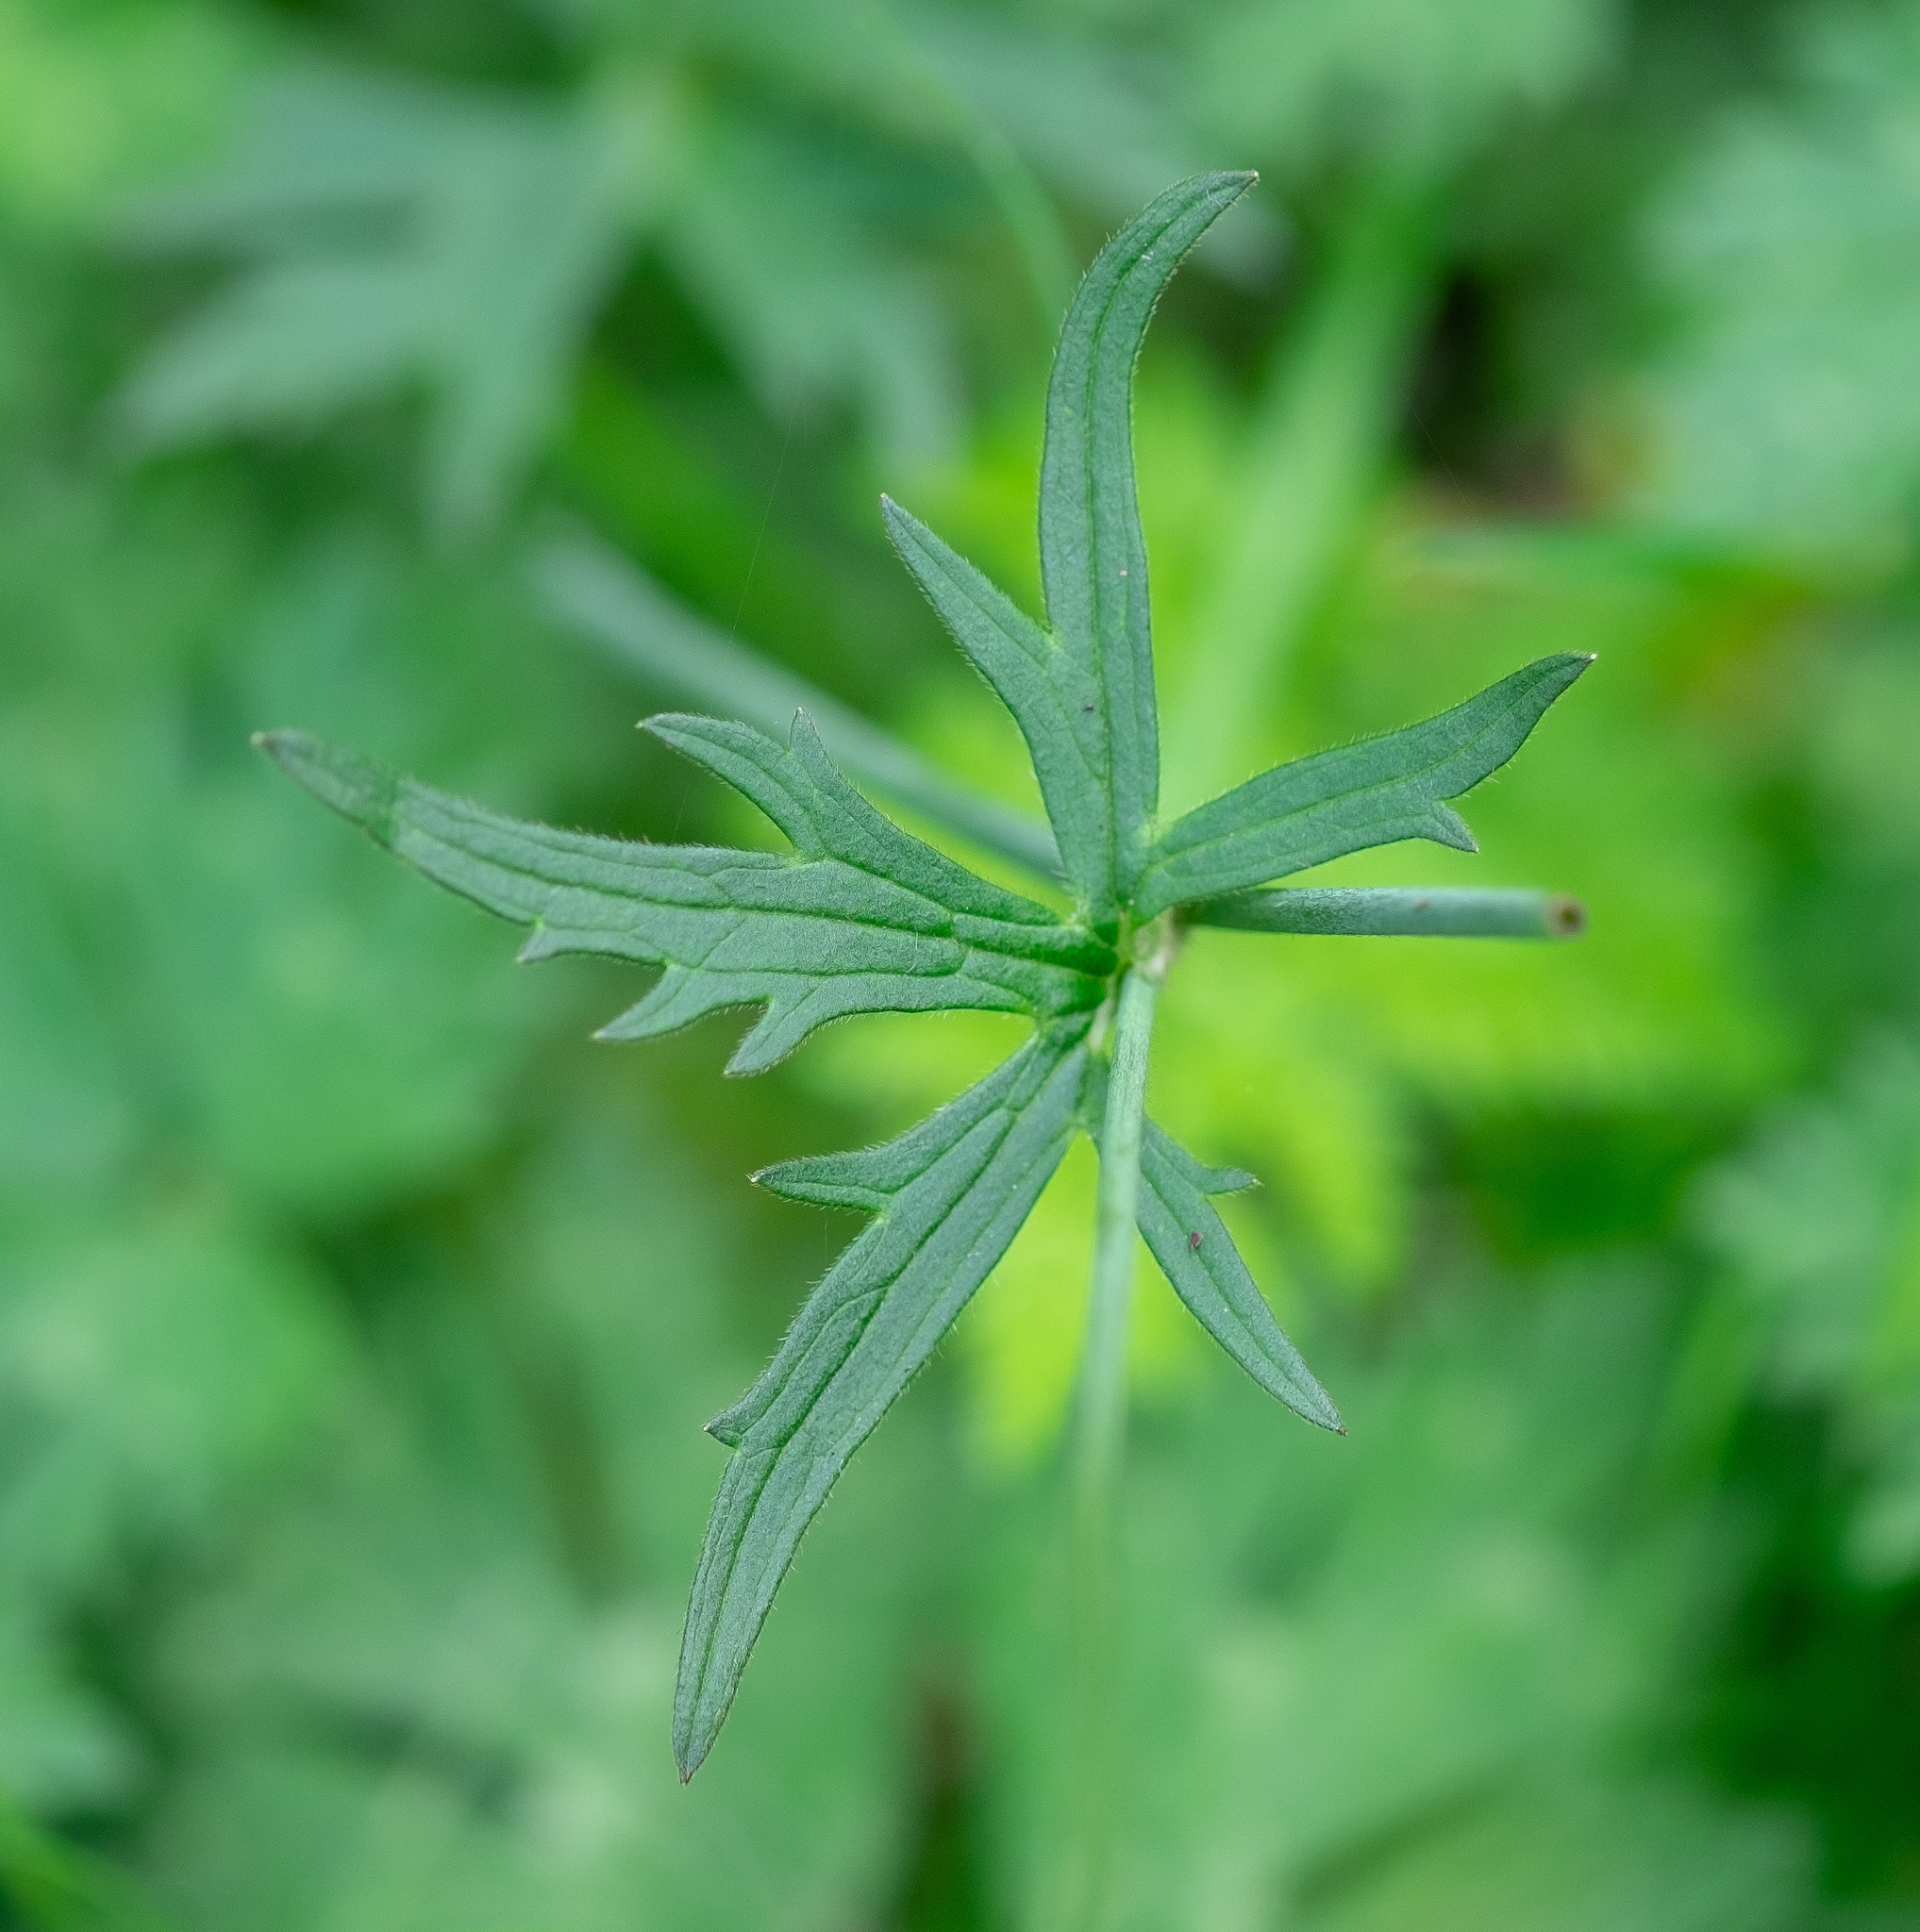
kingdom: Plantae
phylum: Tracheophyta
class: Magnoliopsida
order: Ranunculales
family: Ranunculaceae
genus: Ranunculus
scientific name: Ranunculus acris
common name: Meadow buttercup
